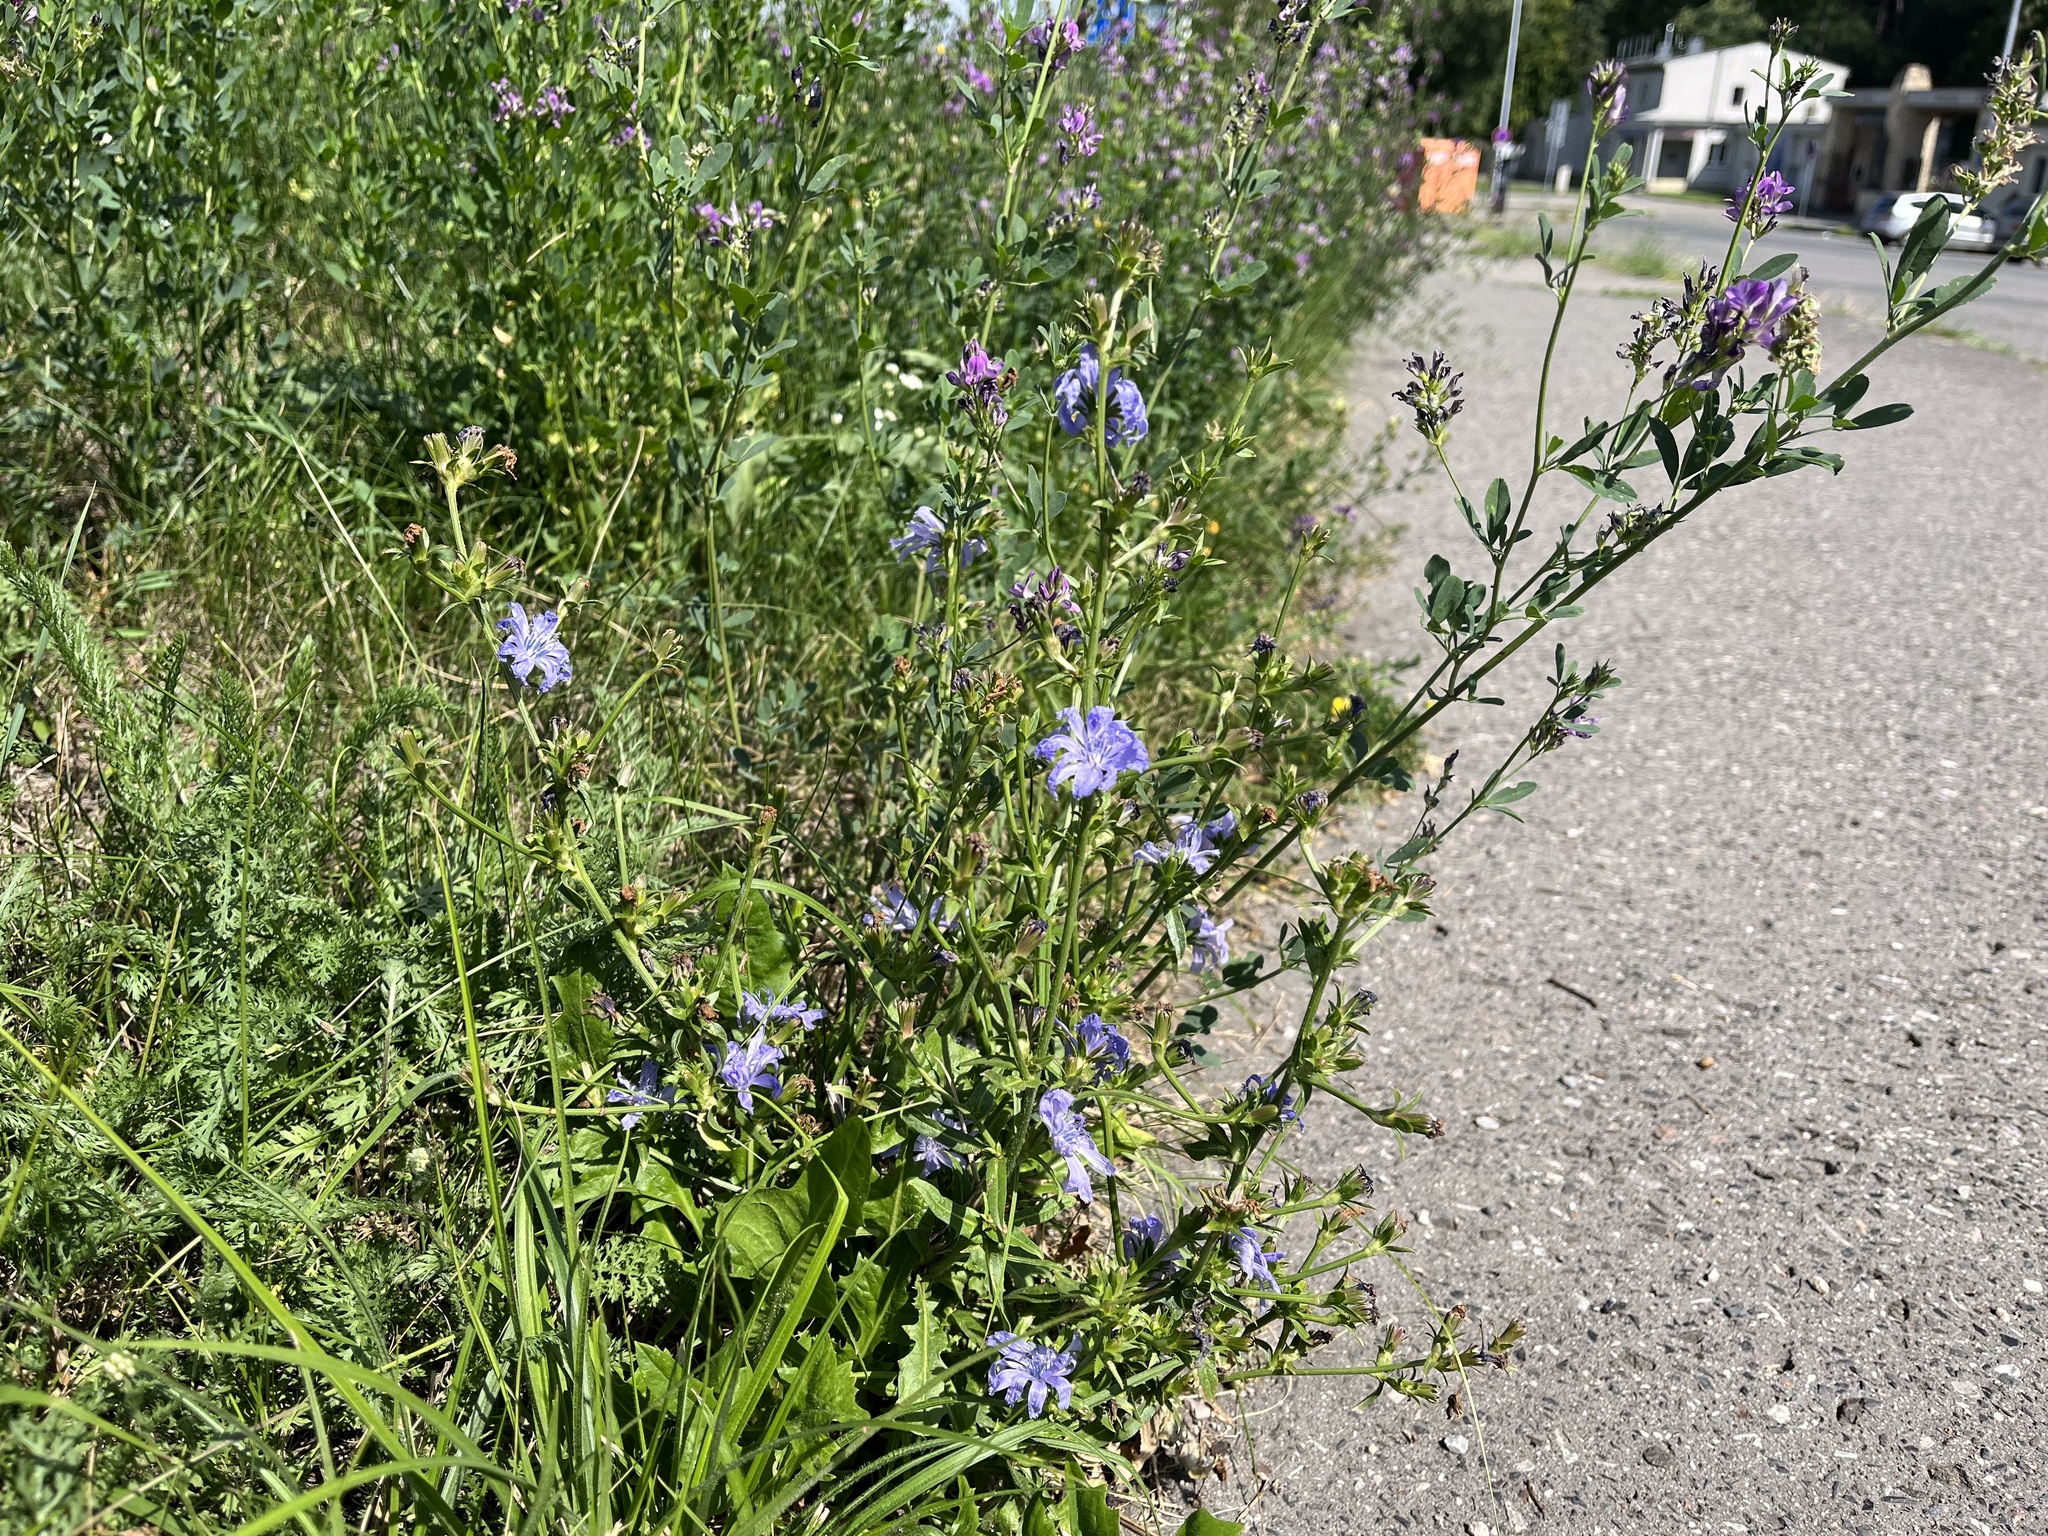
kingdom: Plantae
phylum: Tracheophyta
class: Magnoliopsida
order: Asterales
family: Asteraceae
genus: Cichorium
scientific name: Cichorium intybus
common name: Chicory
